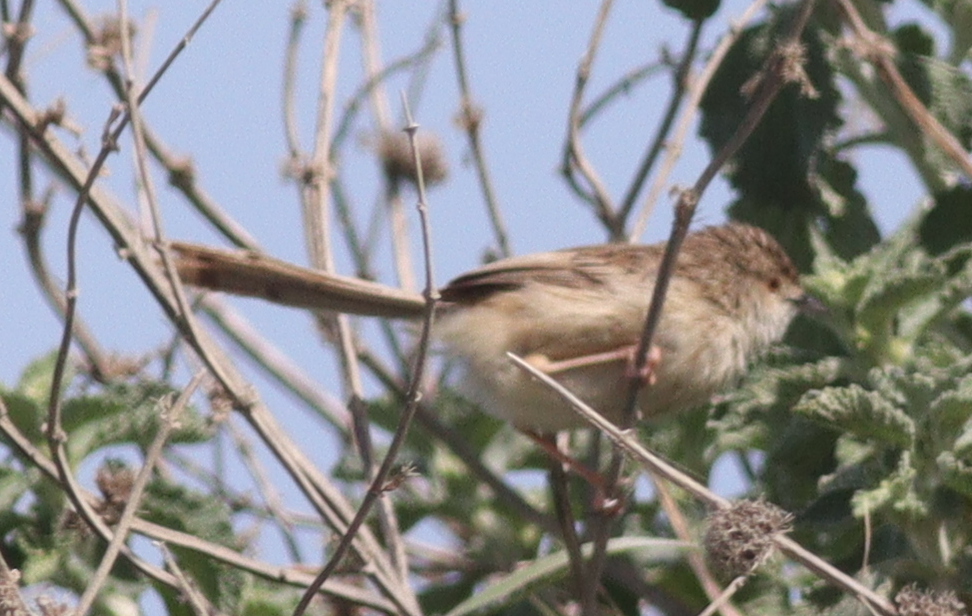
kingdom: Animalia
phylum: Chordata
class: Aves
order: Passeriformes
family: Cisticolidae
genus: Prinia
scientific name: Prinia lepida
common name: Delicate prinia
